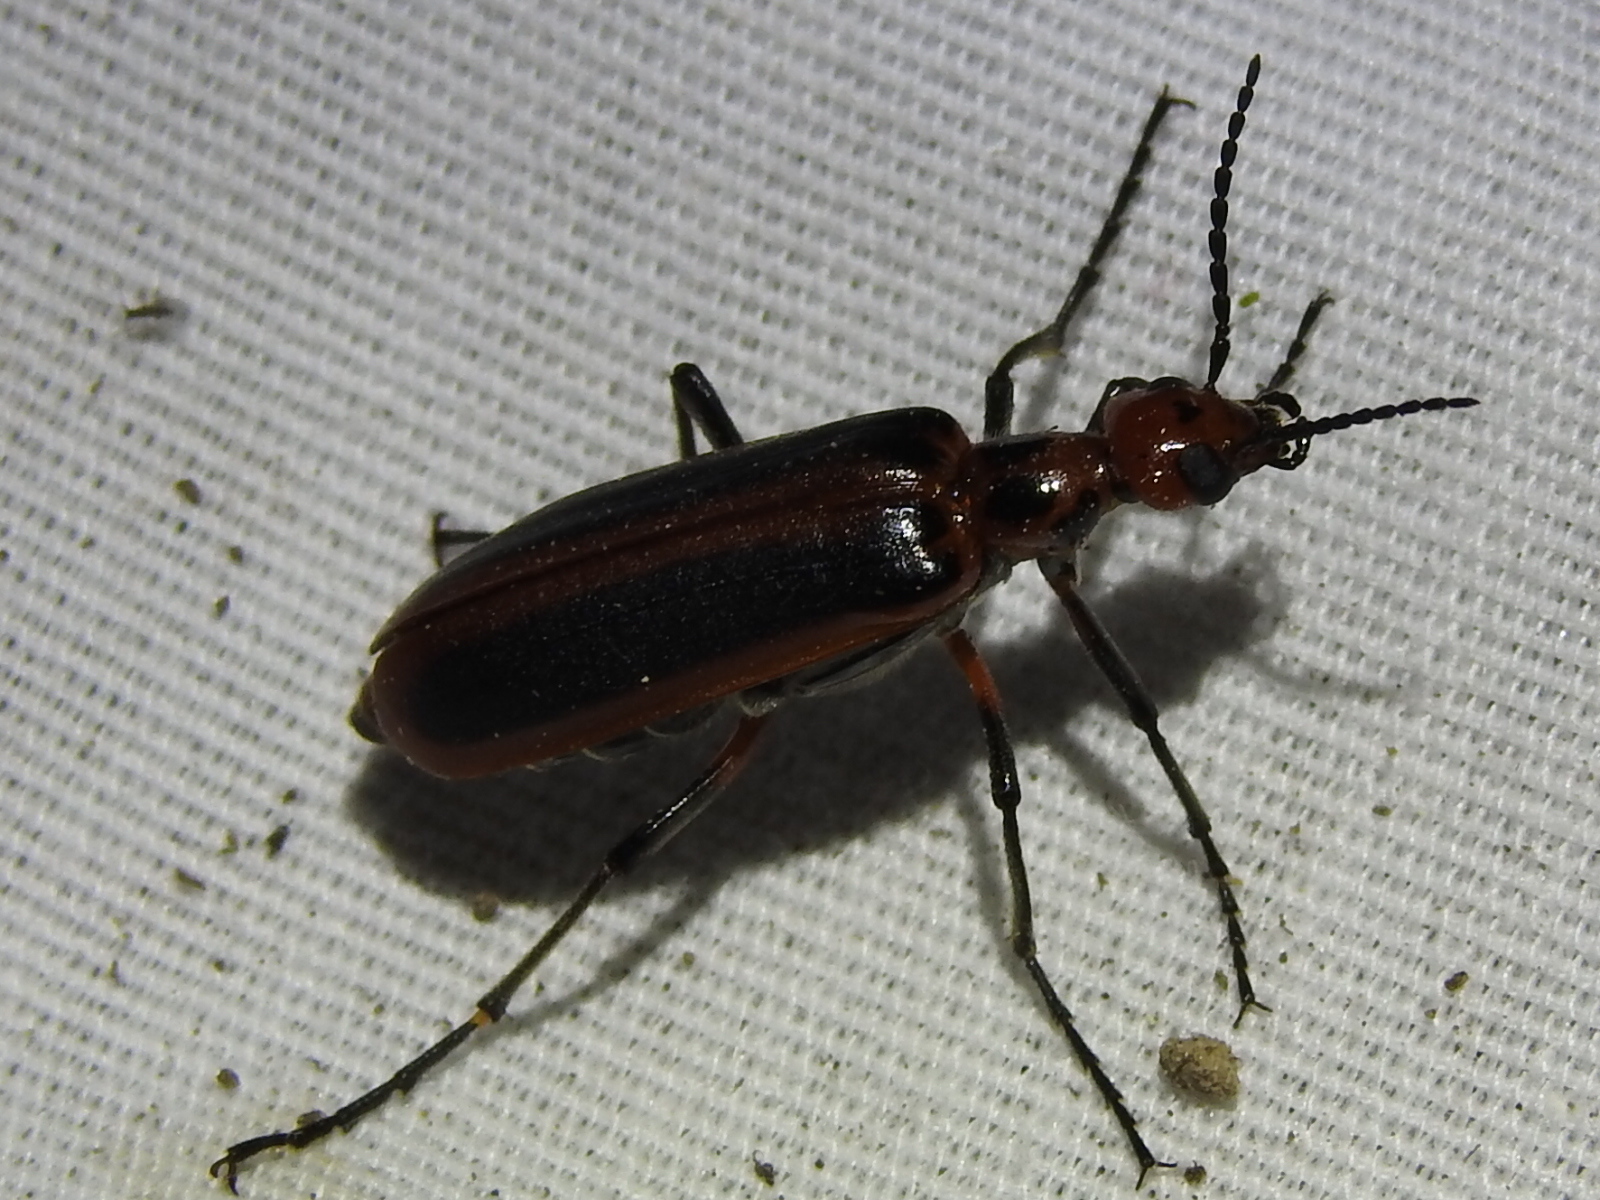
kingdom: Animalia
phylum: Arthropoda
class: Insecta
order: Coleoptera
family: Meloidae
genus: Pyrota
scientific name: Pyrota tenuicostatis
